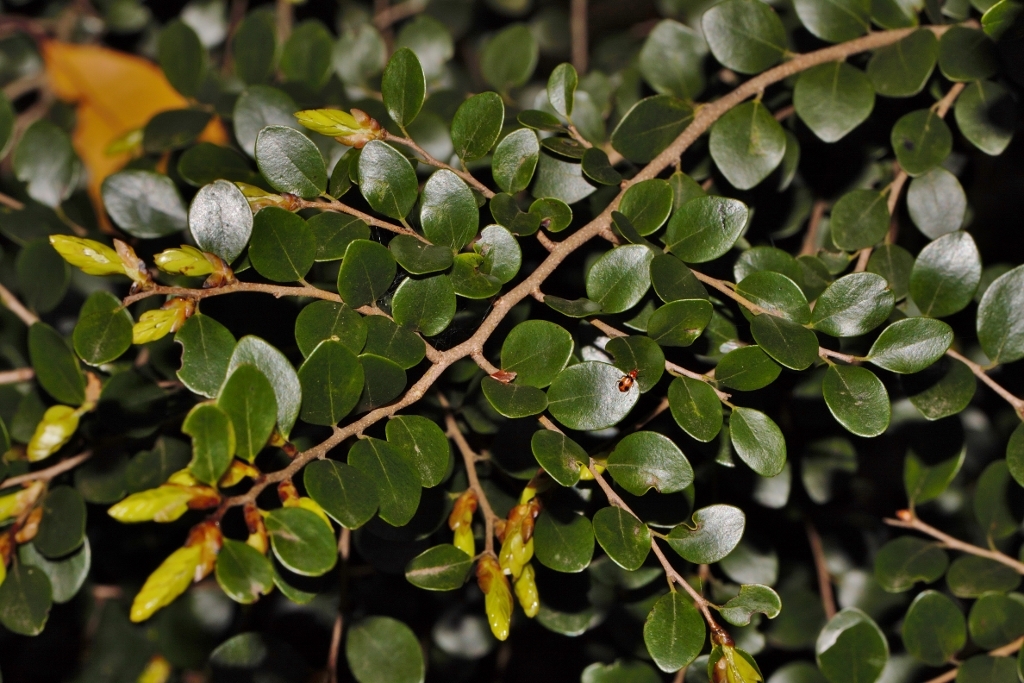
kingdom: Plantae
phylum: Tracheophyta
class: Magnoliopsida
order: Ericales
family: Ebenaceae
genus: Diospyros
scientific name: Diospyros natalensis
